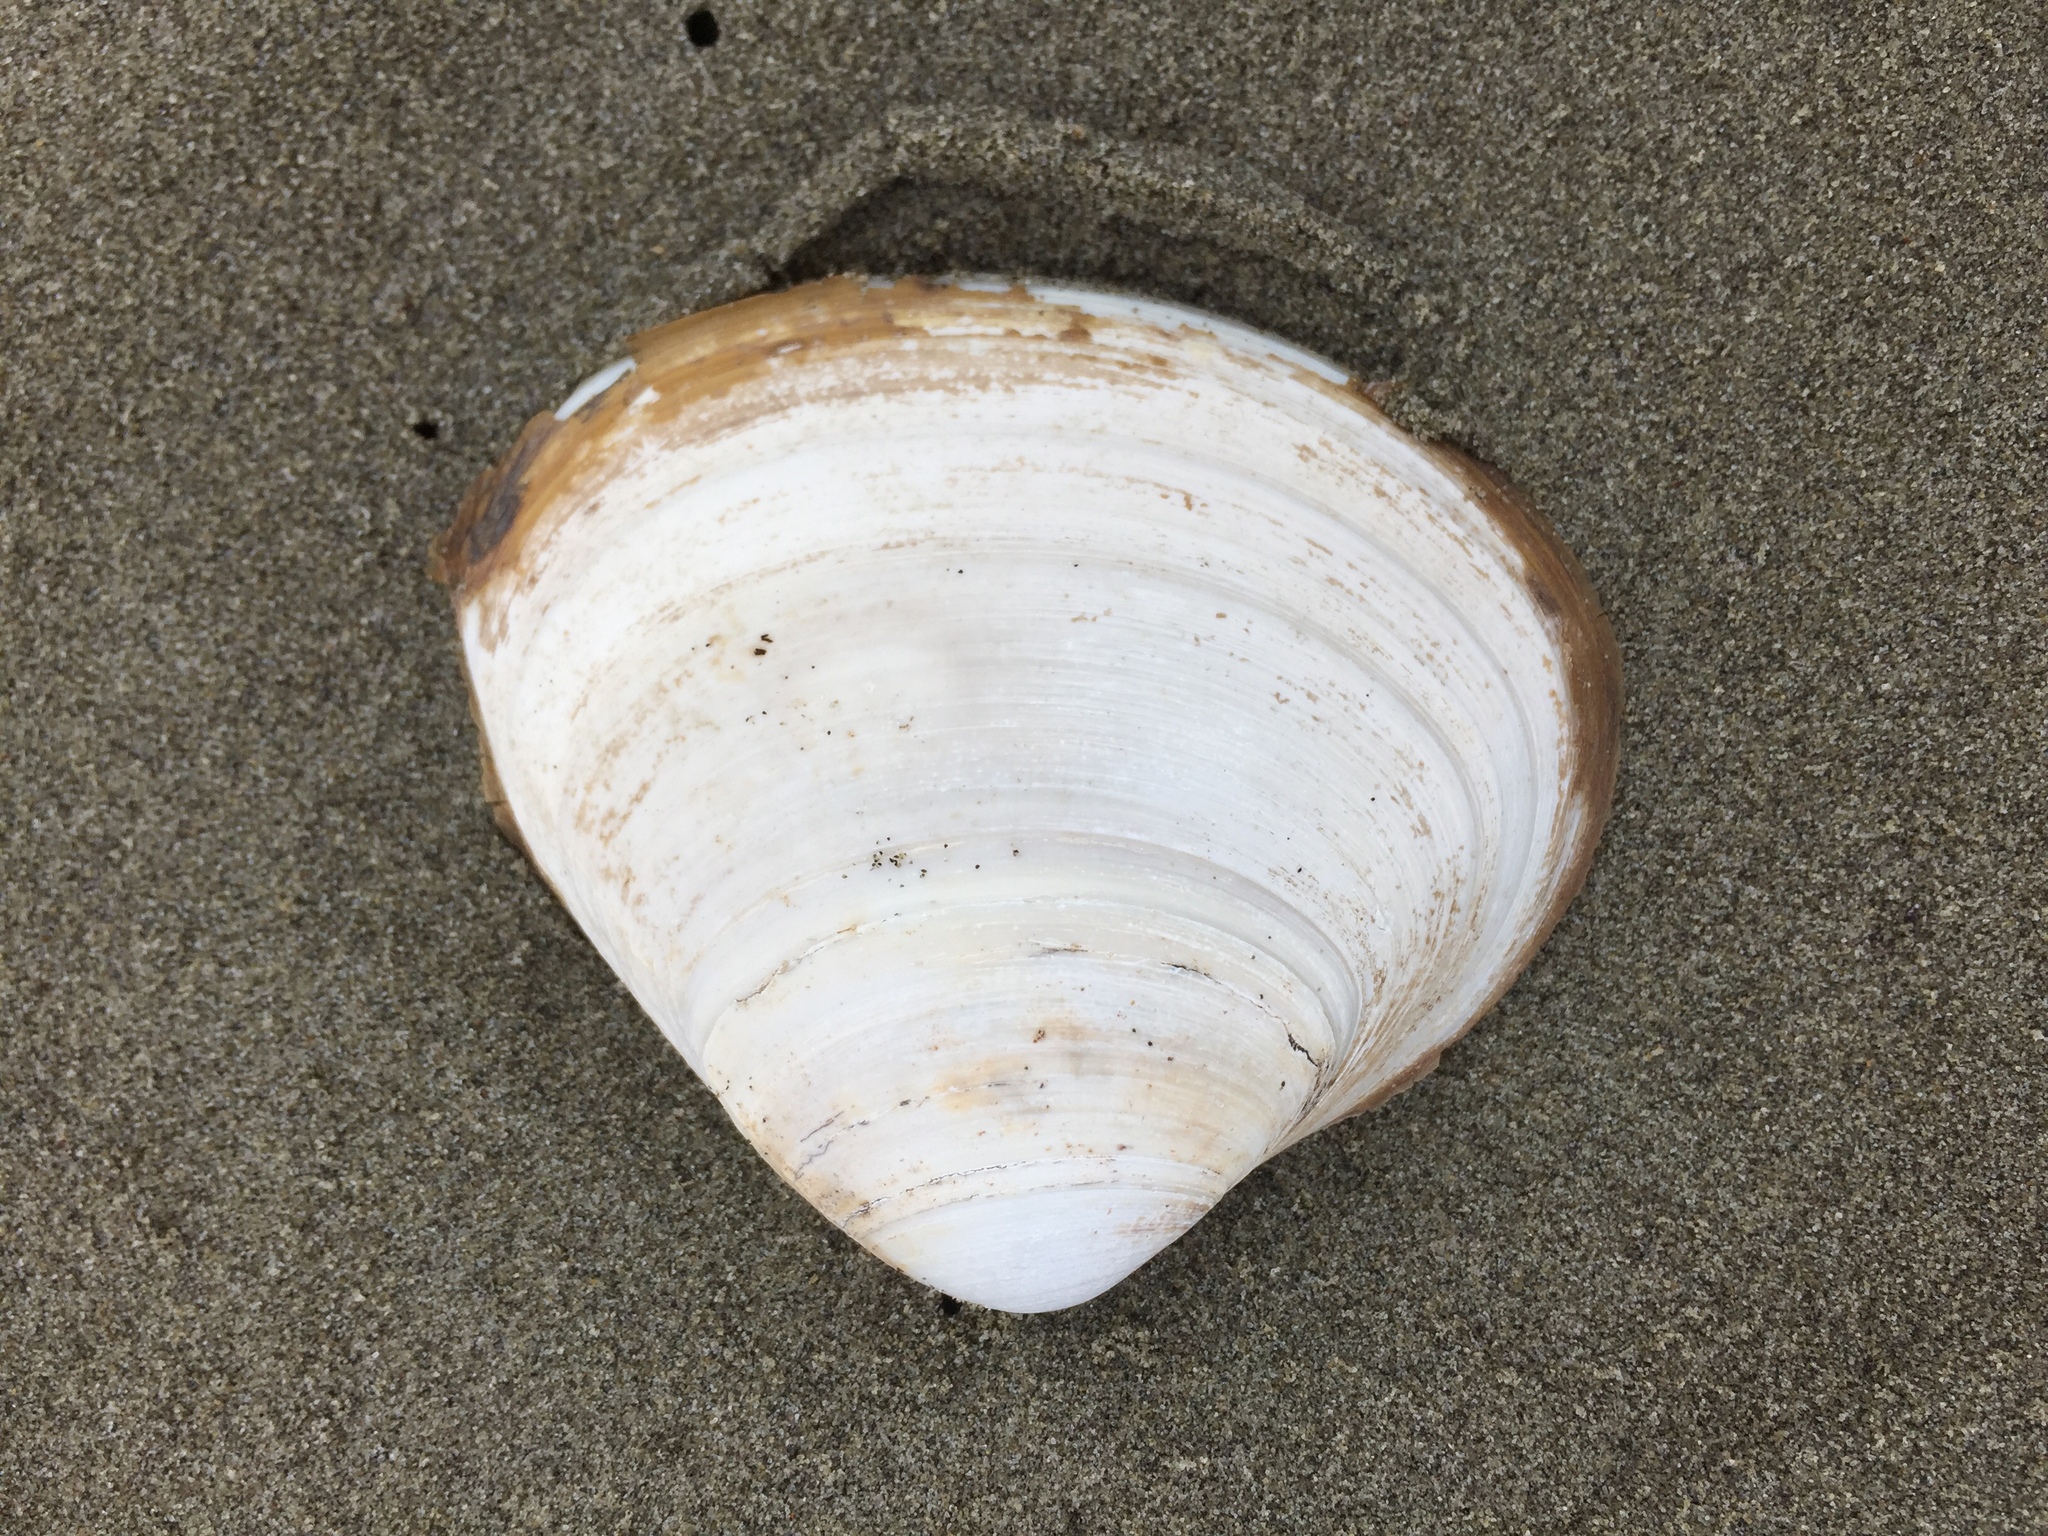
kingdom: Animalia
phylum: Mollusca
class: Bivalvia
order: Venerida
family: Mactridae
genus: Spisula
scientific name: Spisula murchisoni
